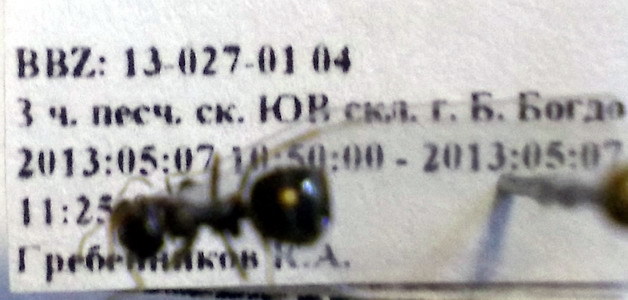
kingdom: Animalia
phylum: Arthropoda
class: Insecta
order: Hymenoptera
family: Formicidae
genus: Proformica
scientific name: Proformica epinotalis
